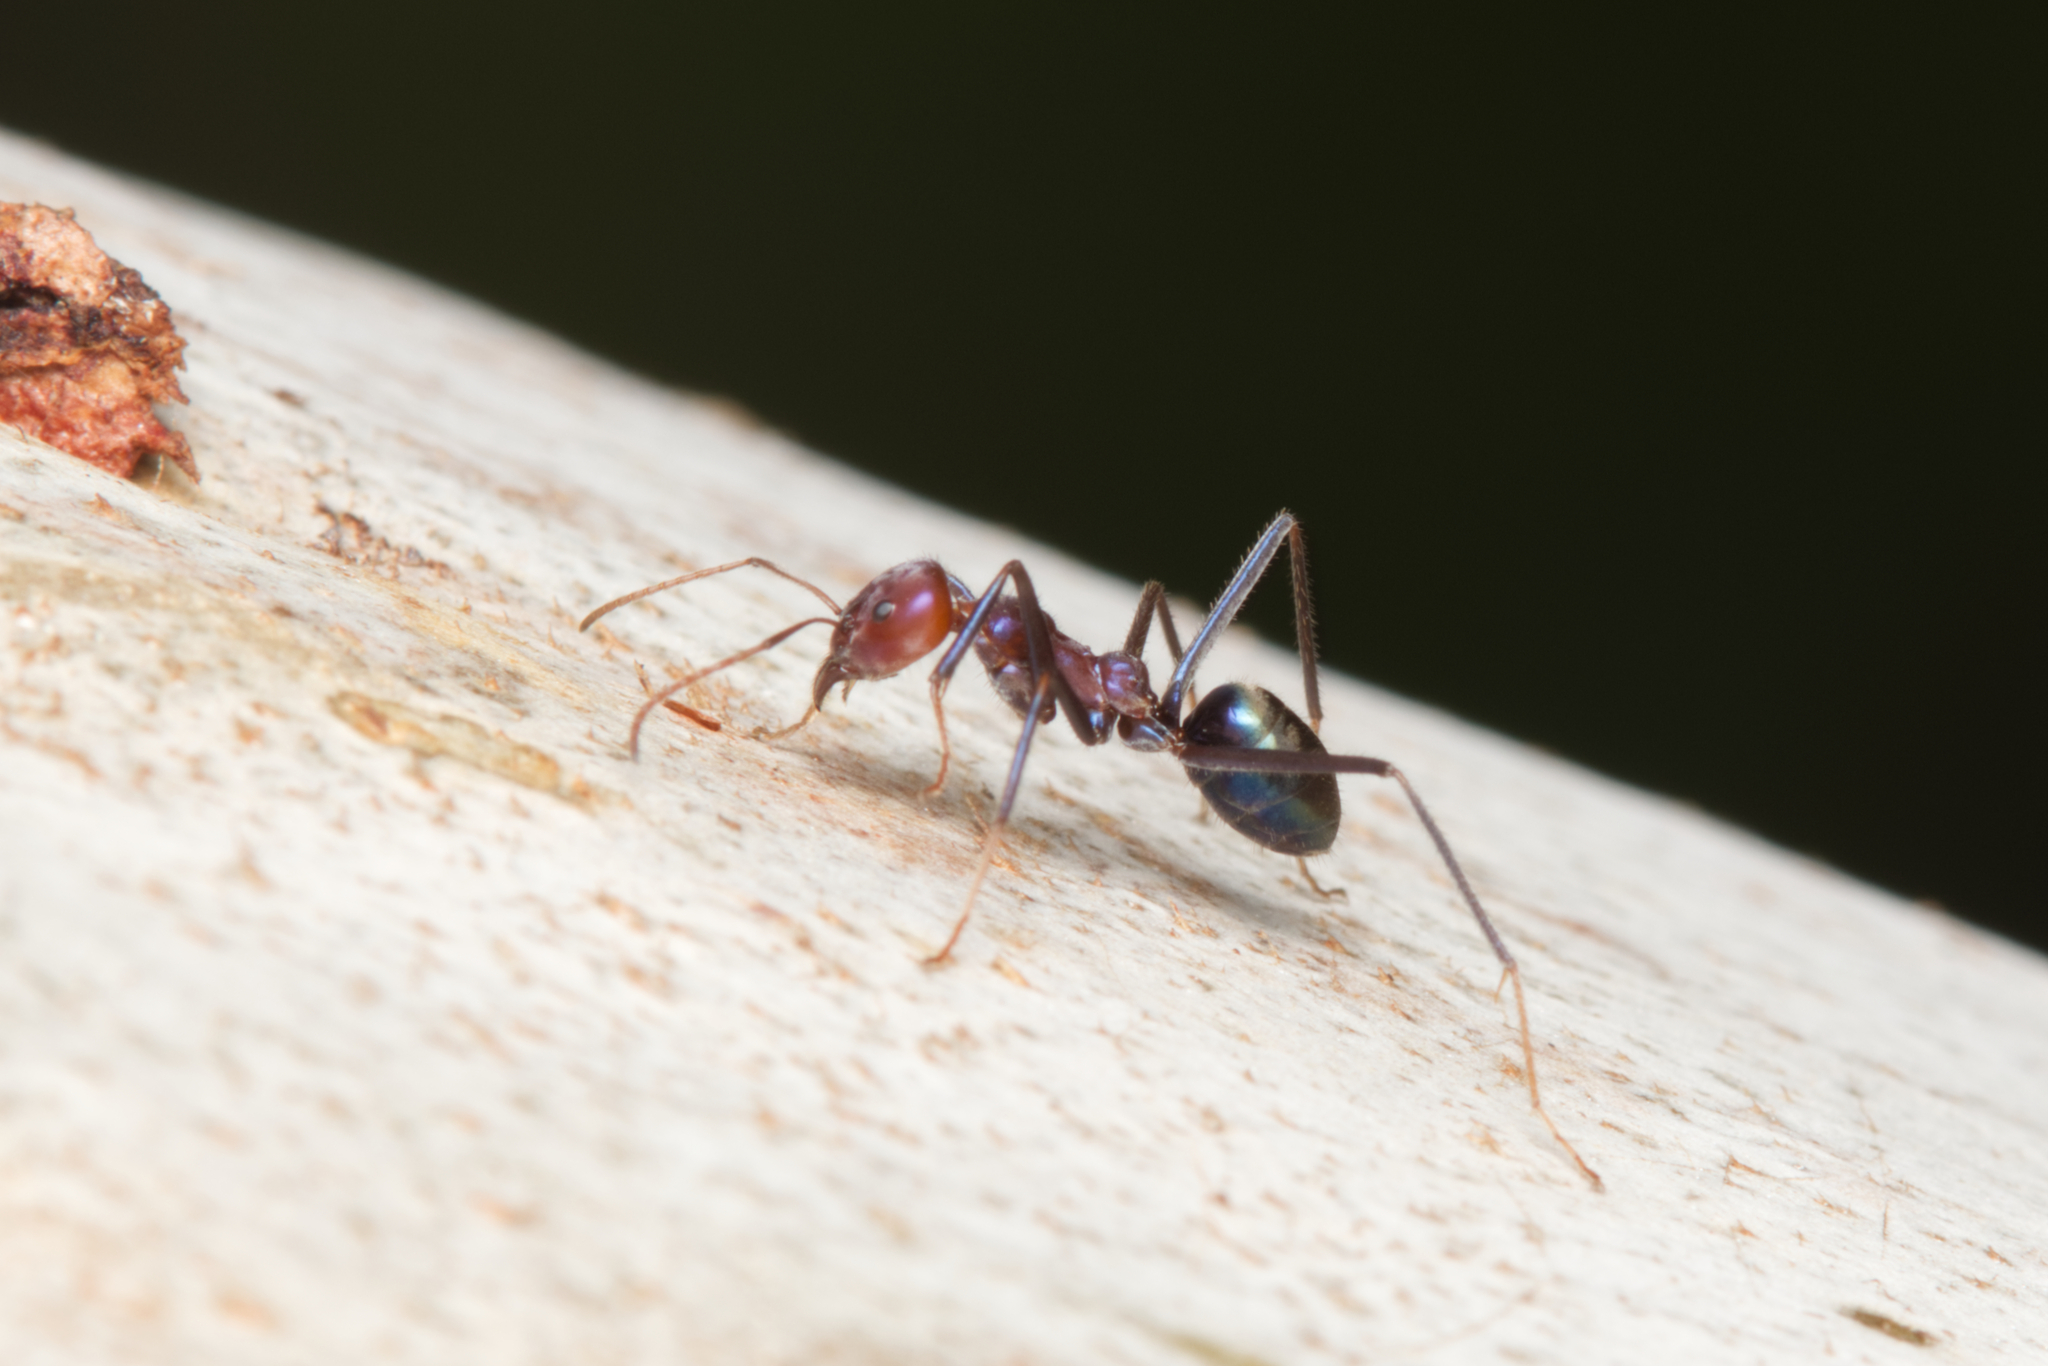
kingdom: Animalia
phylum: Arthropoda
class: Insecta
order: Hymenoptera
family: Formicidae
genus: Iridomyrmex
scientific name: Iridomyrmex purpureus
